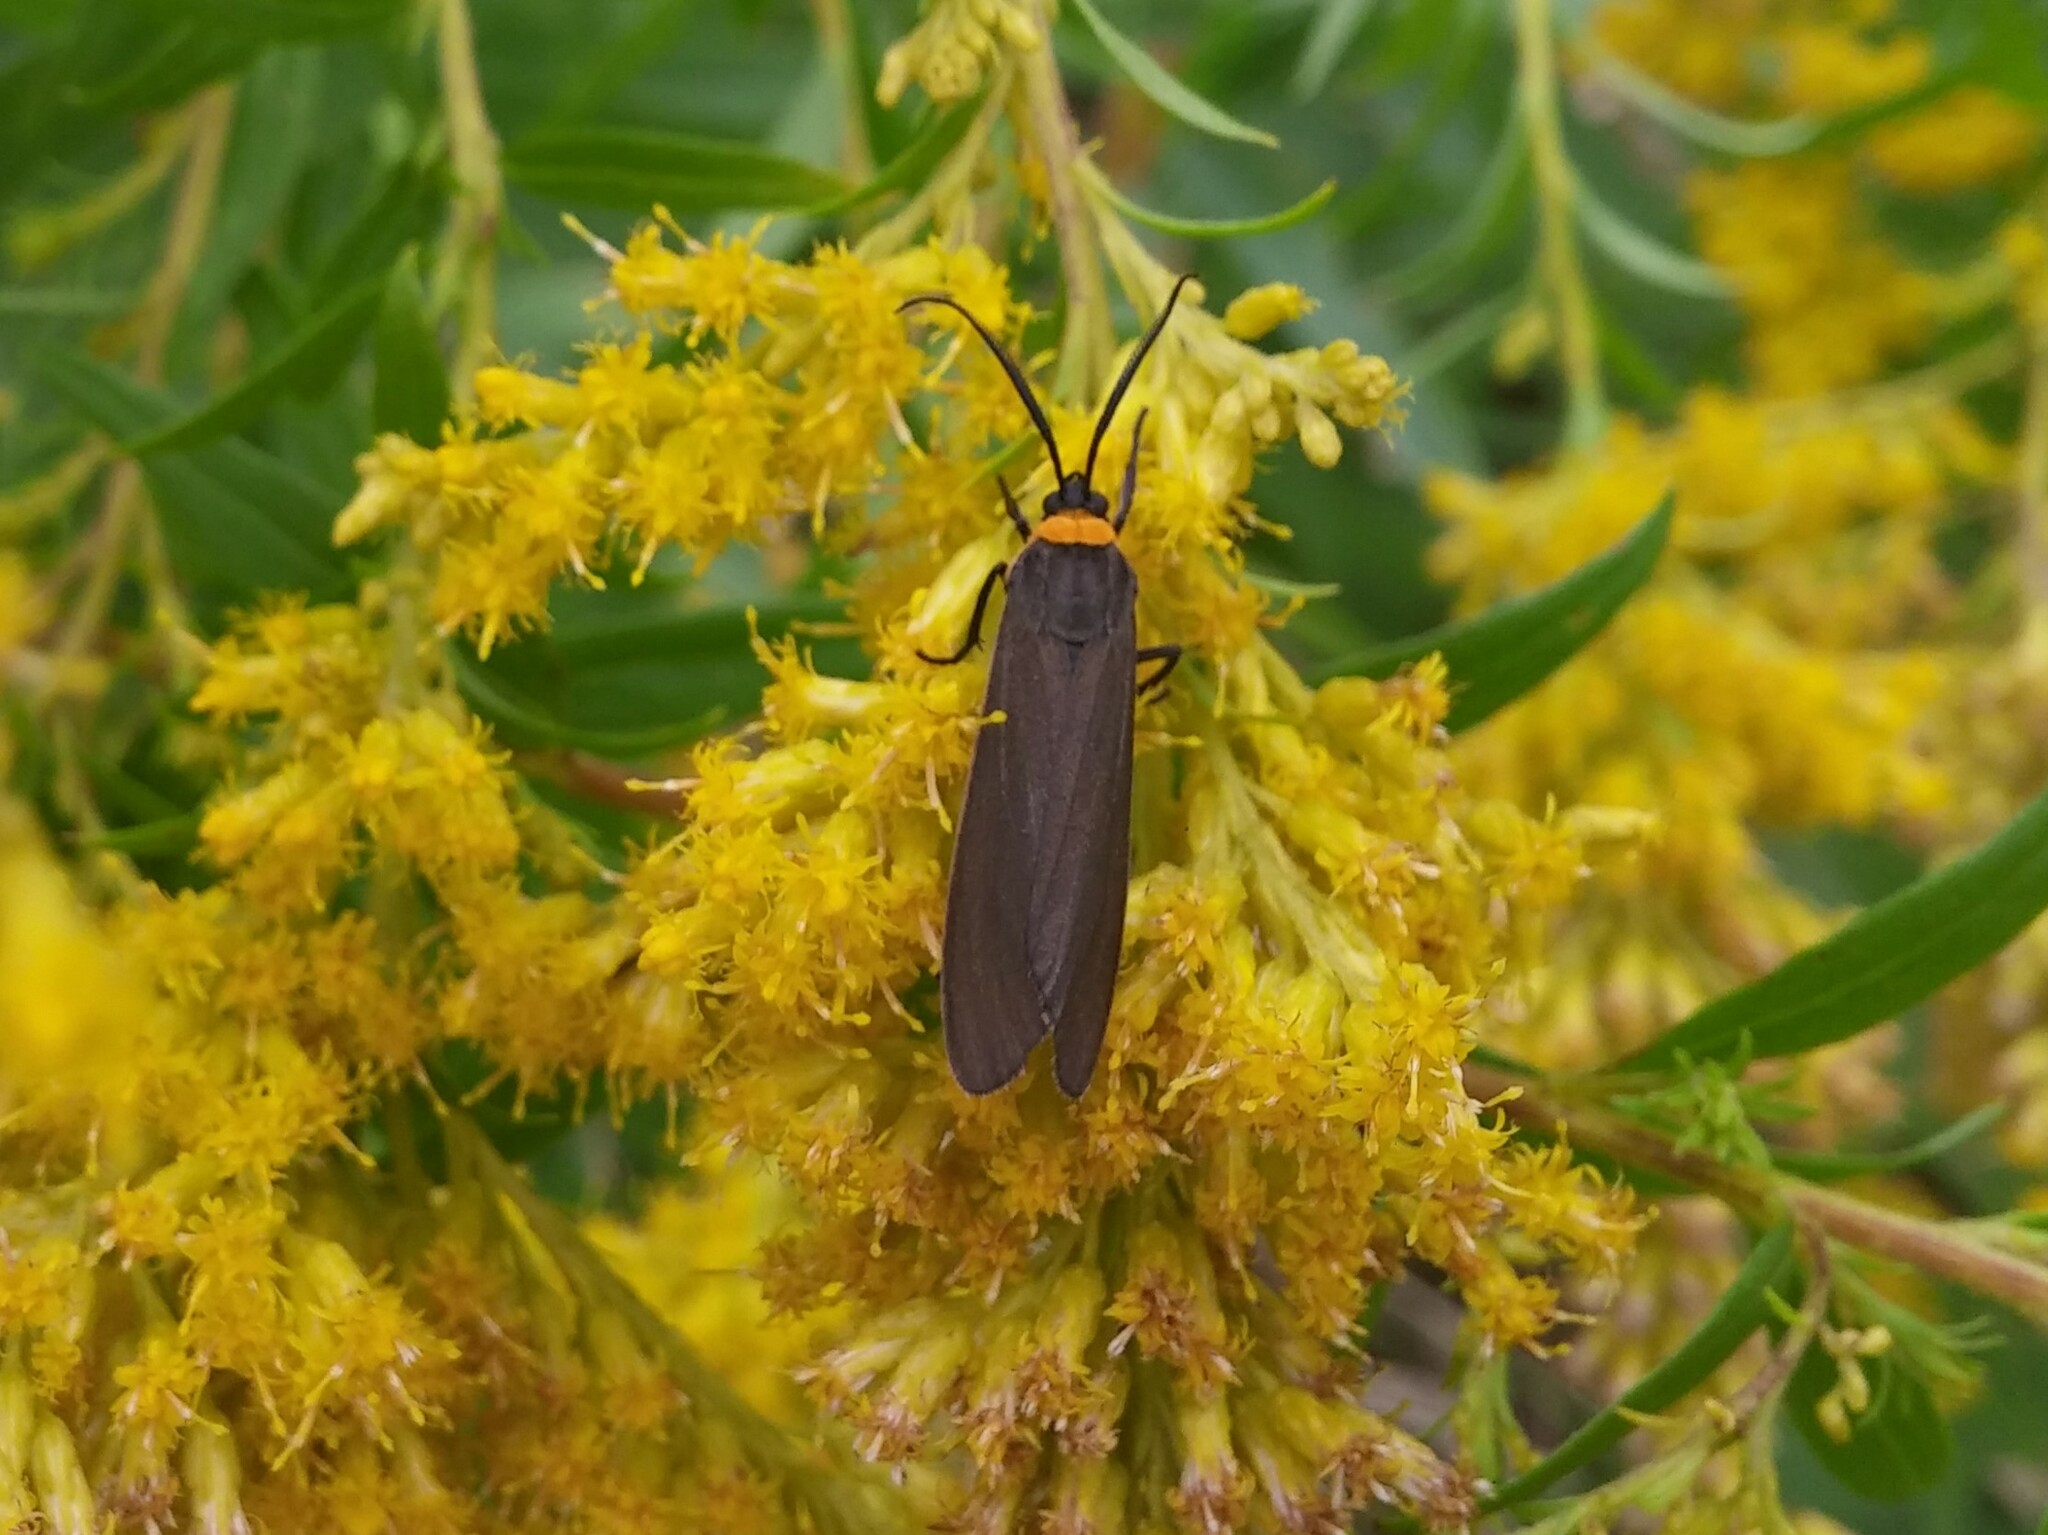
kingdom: Animalia
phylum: Arthropoda
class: Insecta
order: Lepidoptera
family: Erebidae
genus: Cisseps
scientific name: Cisseps fulvicollis
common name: Yellow-collared scape moth
